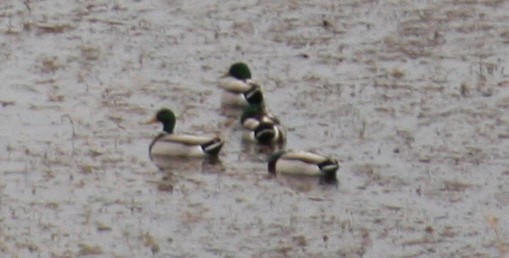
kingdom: Animalia
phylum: Chordata
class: Aves
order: Anseriformes
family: Anatidae
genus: Anas
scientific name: Anas platyrhynchos
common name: Mallard
